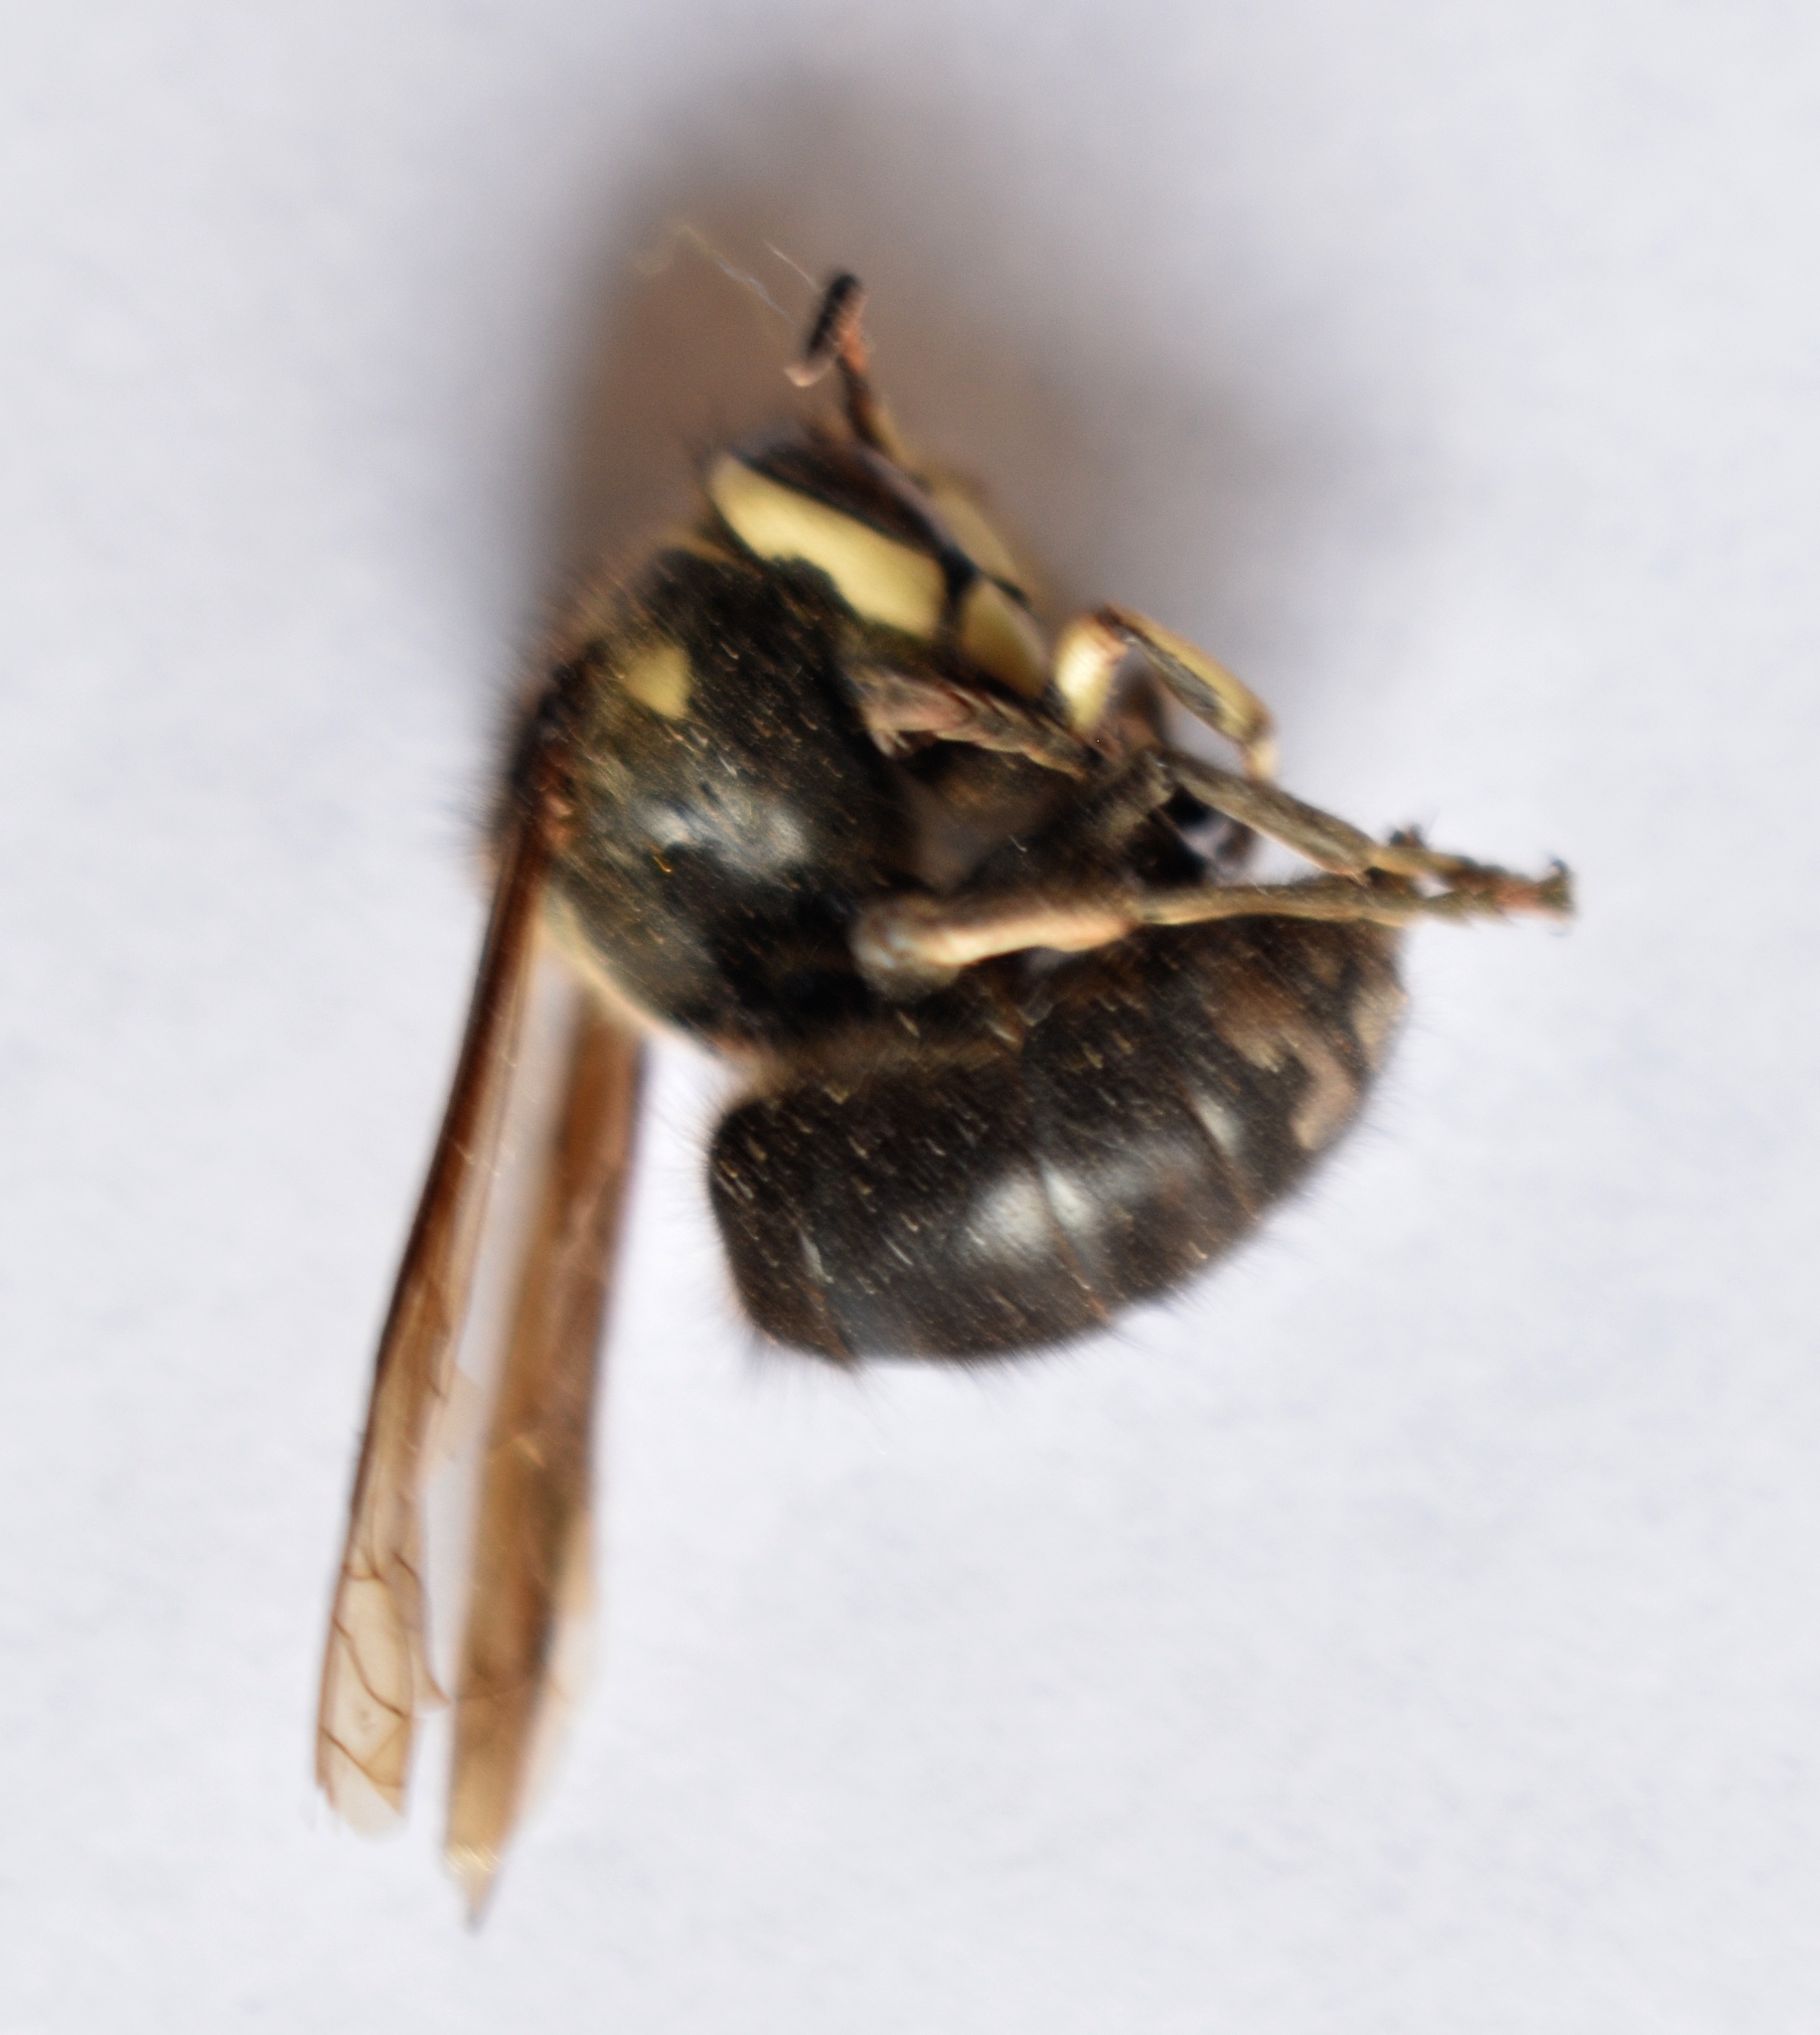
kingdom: Animalia
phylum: Arthropoda
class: Insecta
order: Hymenoptera
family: Vespidae
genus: Dolichovespula
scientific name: Dolichovespula maculata
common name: Bald-faced hornet
